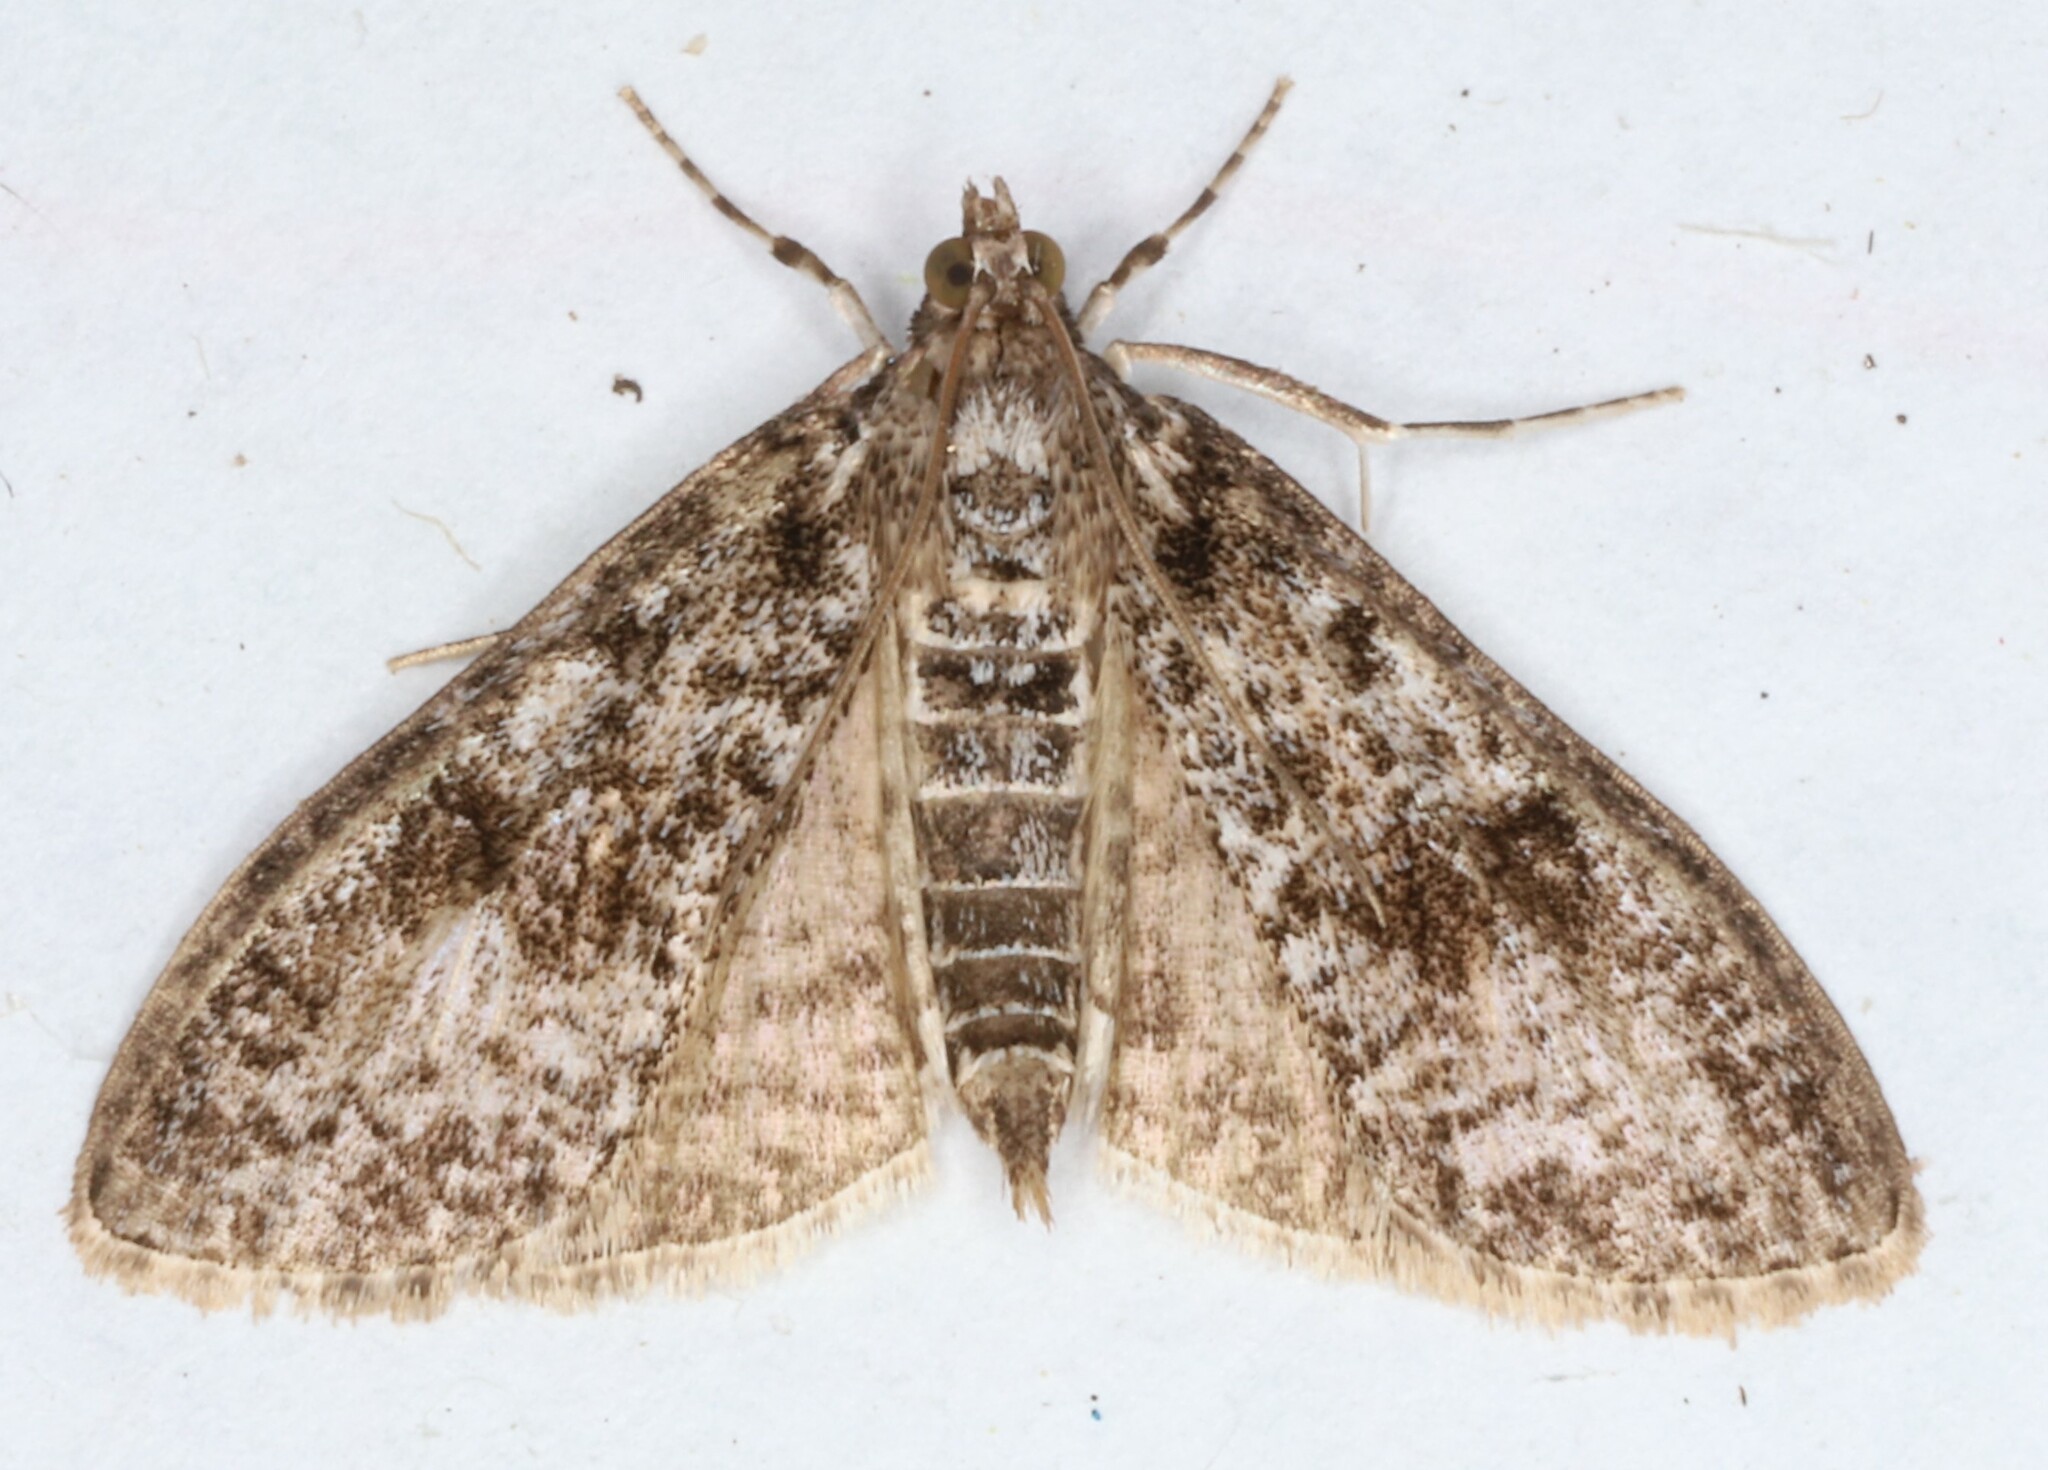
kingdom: Animalia
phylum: Arthropoda
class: Insecta
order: Lepidoptera
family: Crambidae
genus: Palpita
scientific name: Palpita magniferalis
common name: Splendid palpita moth
